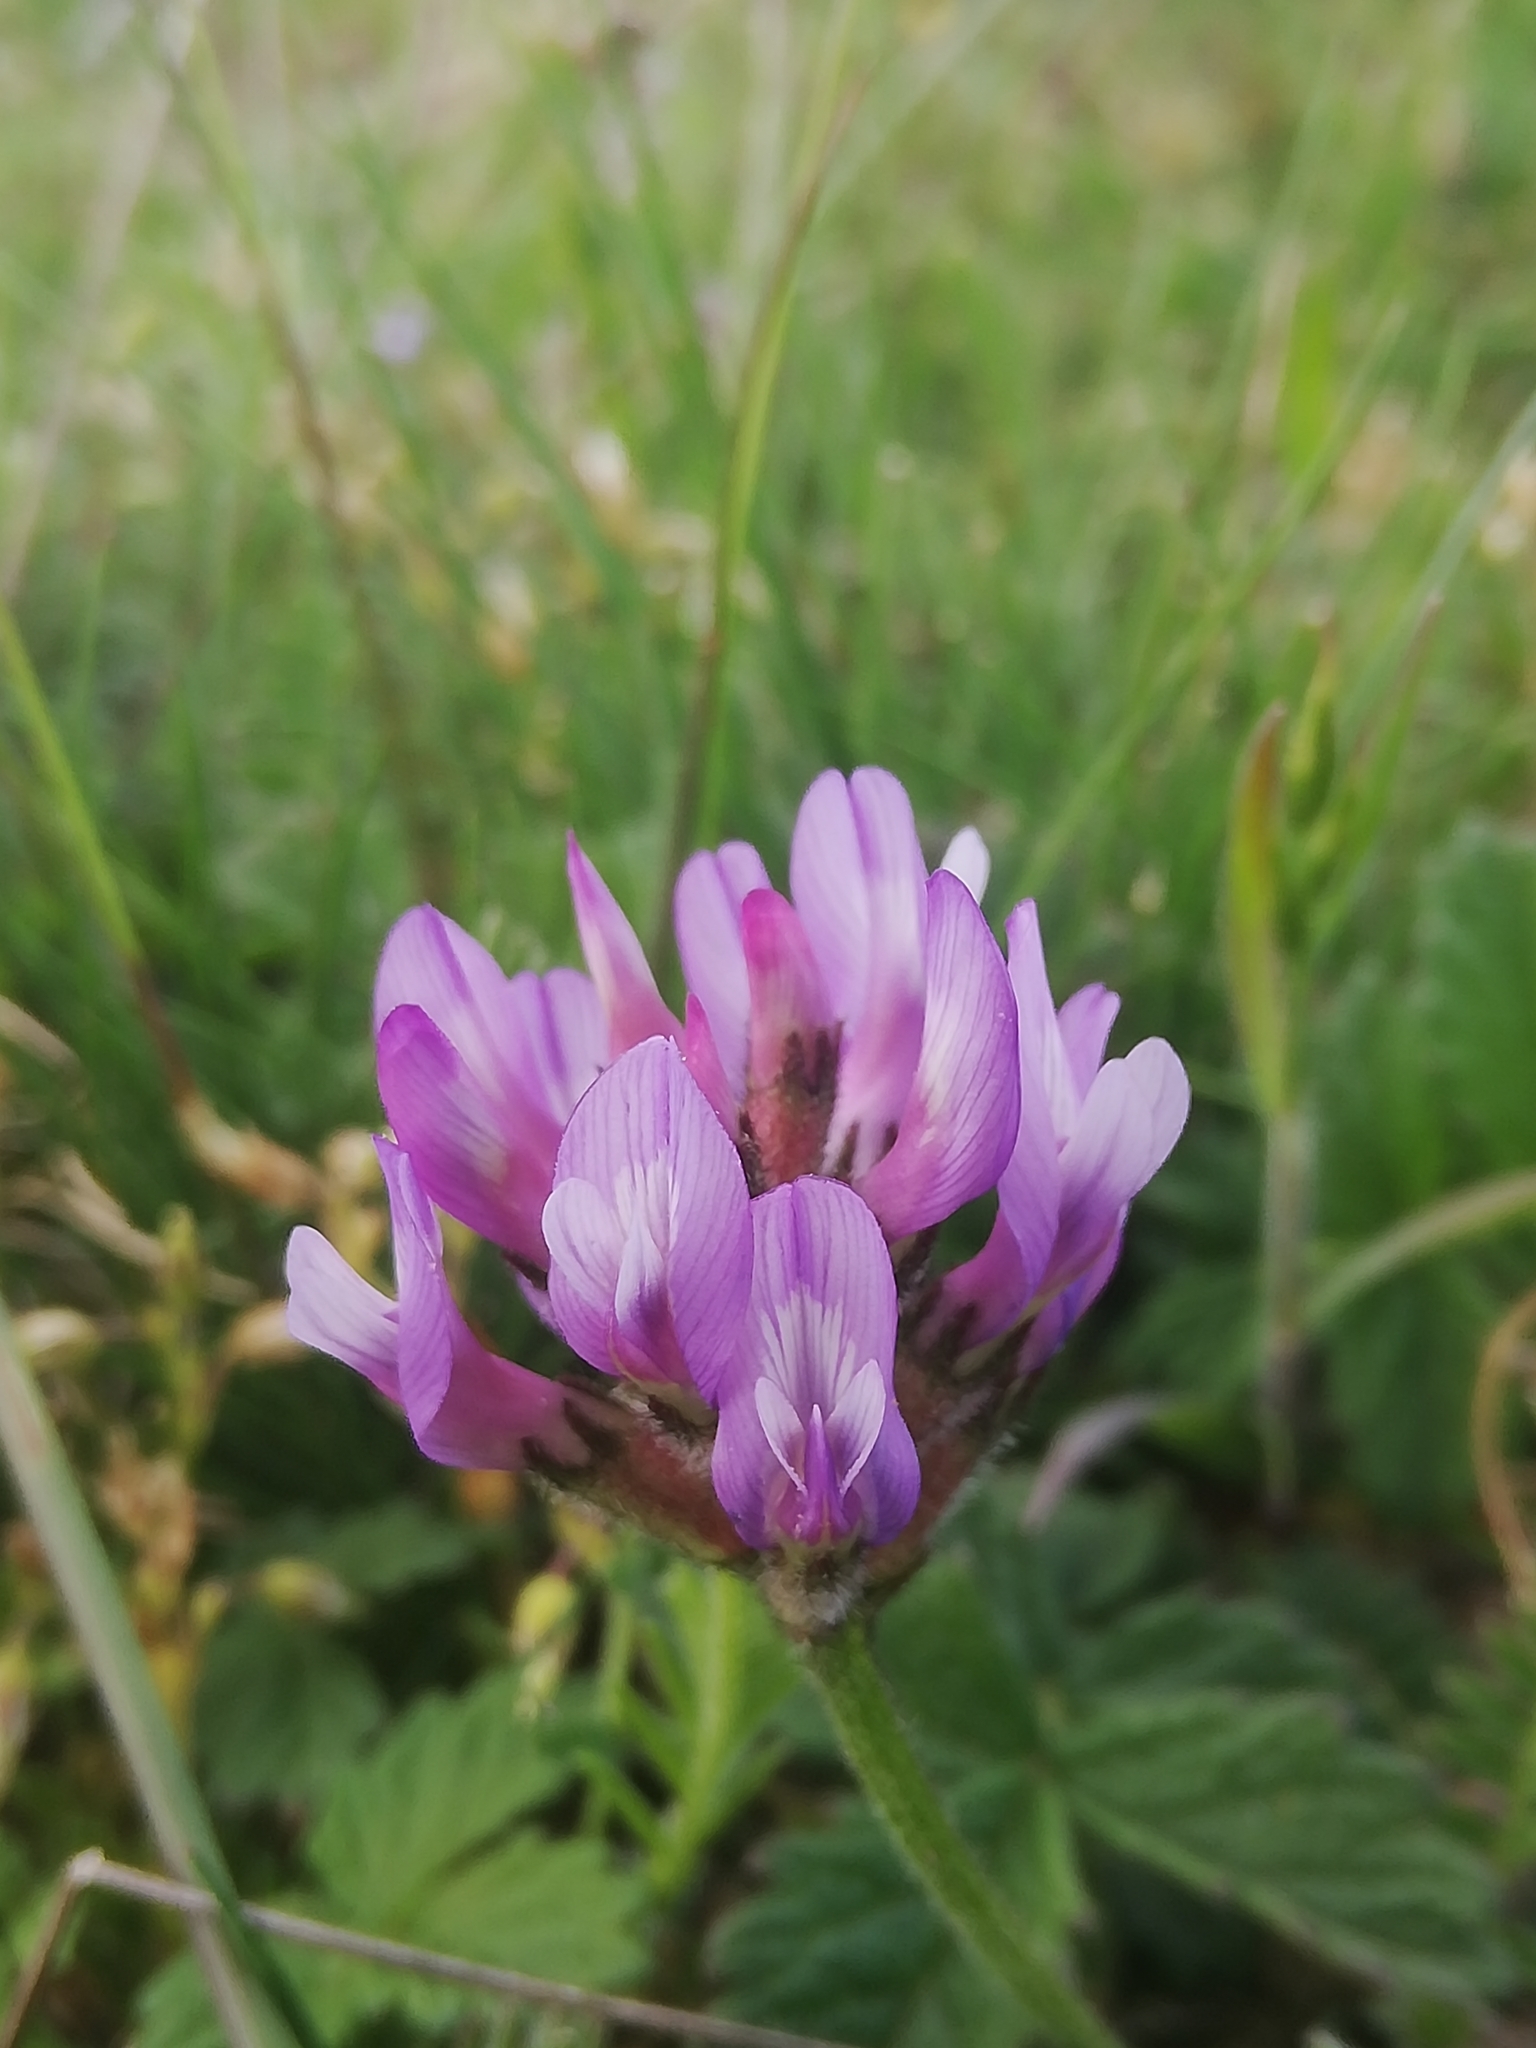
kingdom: Plantae
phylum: Tracheophyta
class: Magnoliopsida
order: Fabales
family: Fabaceae
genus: Astragalus
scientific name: Astragalus danicus
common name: Purple milk-vetch
